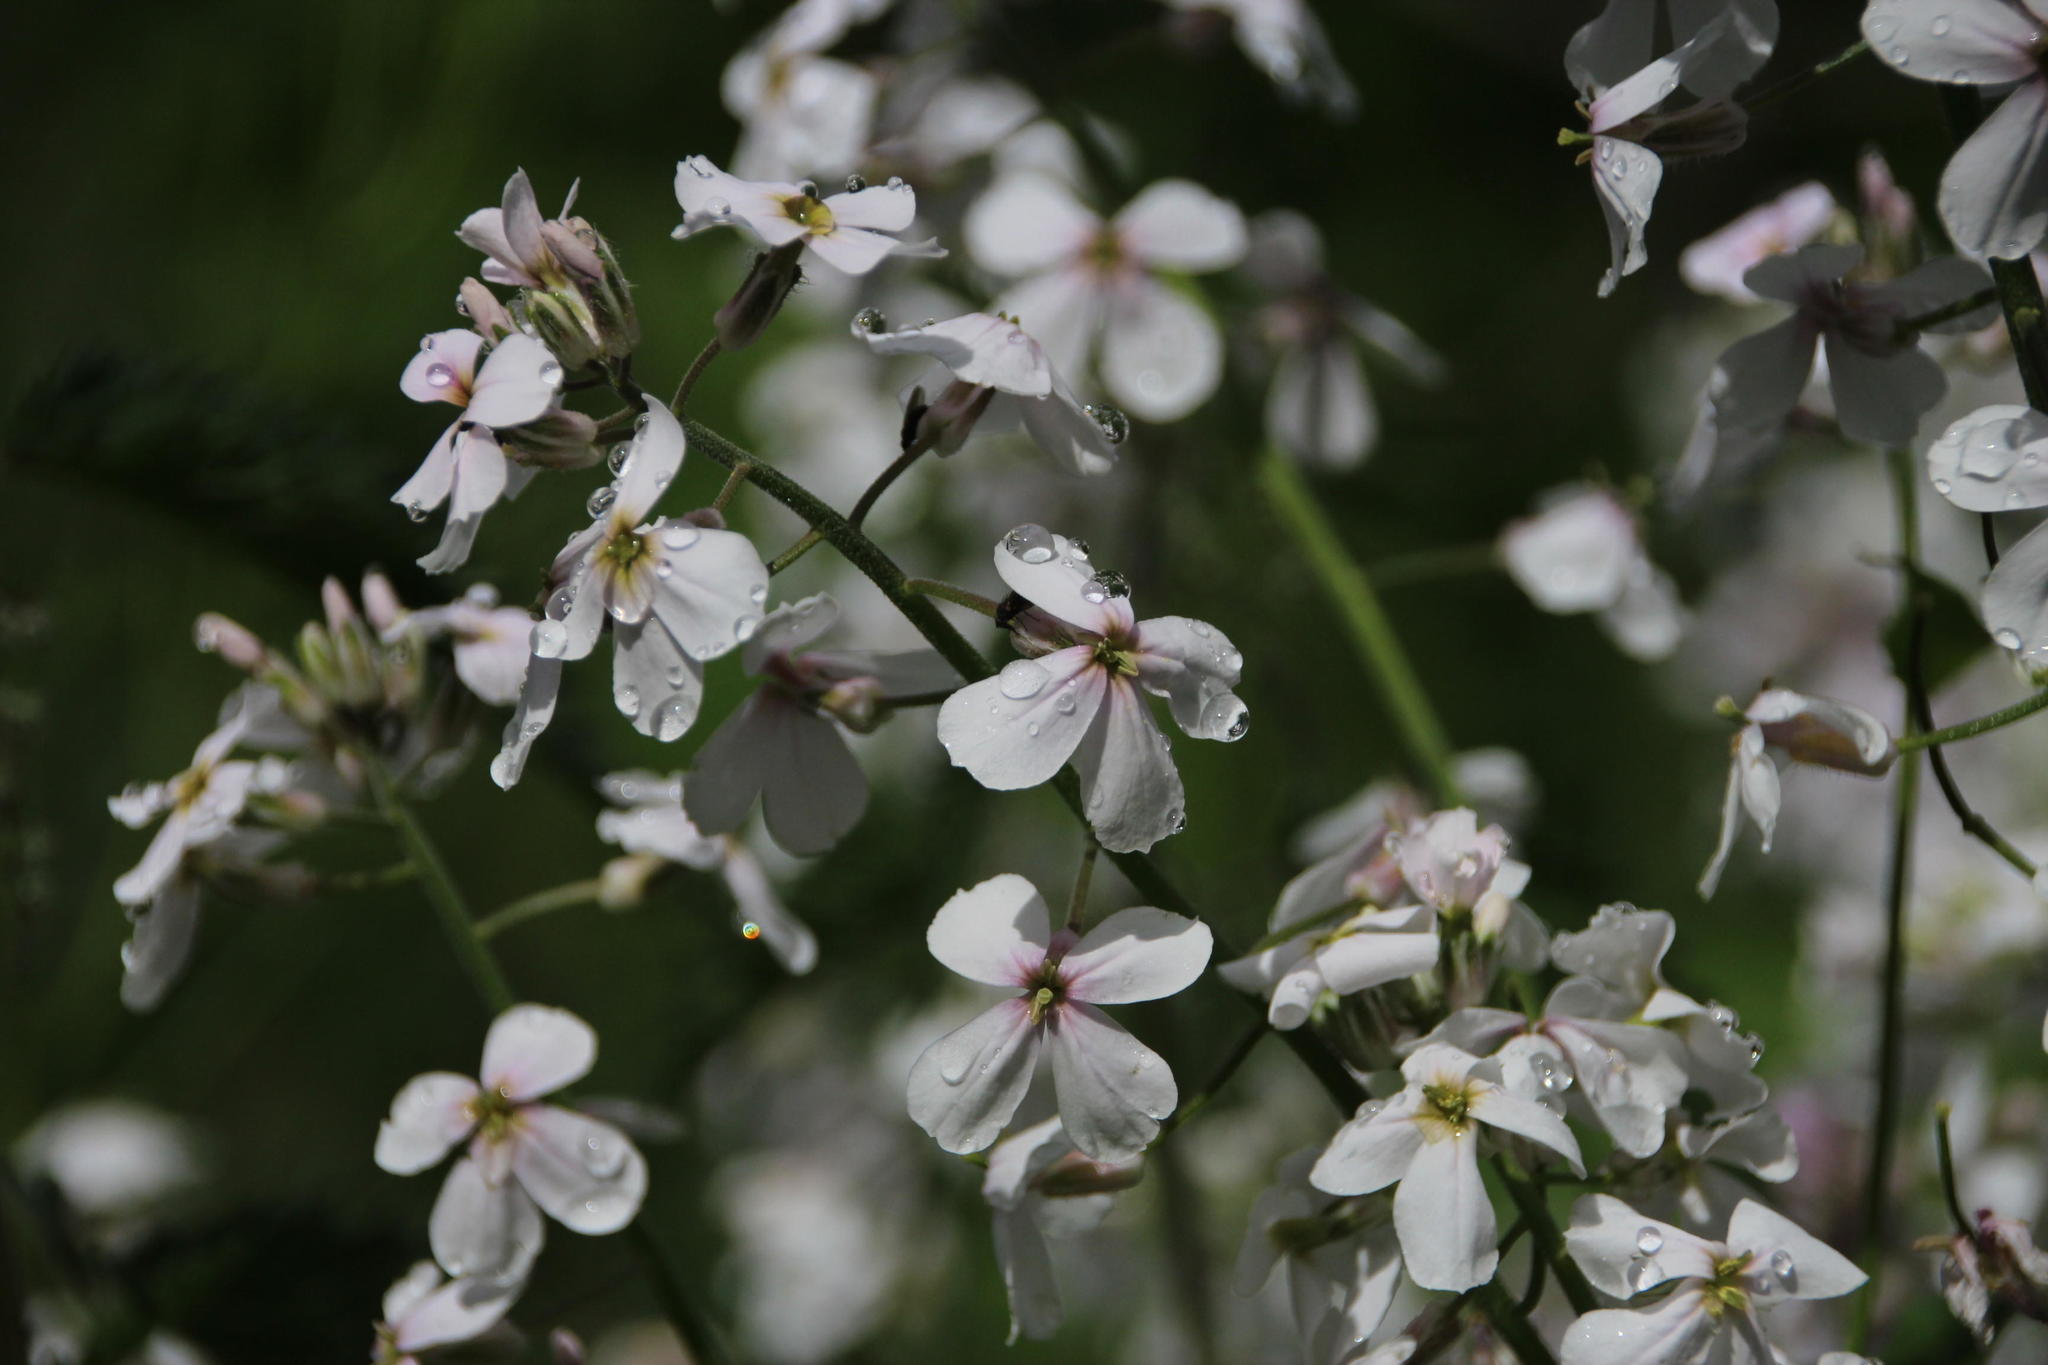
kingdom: Plantae
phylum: Tracheophyta
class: Magnoliopsida
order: Brassicales
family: Brassicaceae
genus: Hesperis
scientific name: Hesperis matronalis
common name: Dame's-violet
